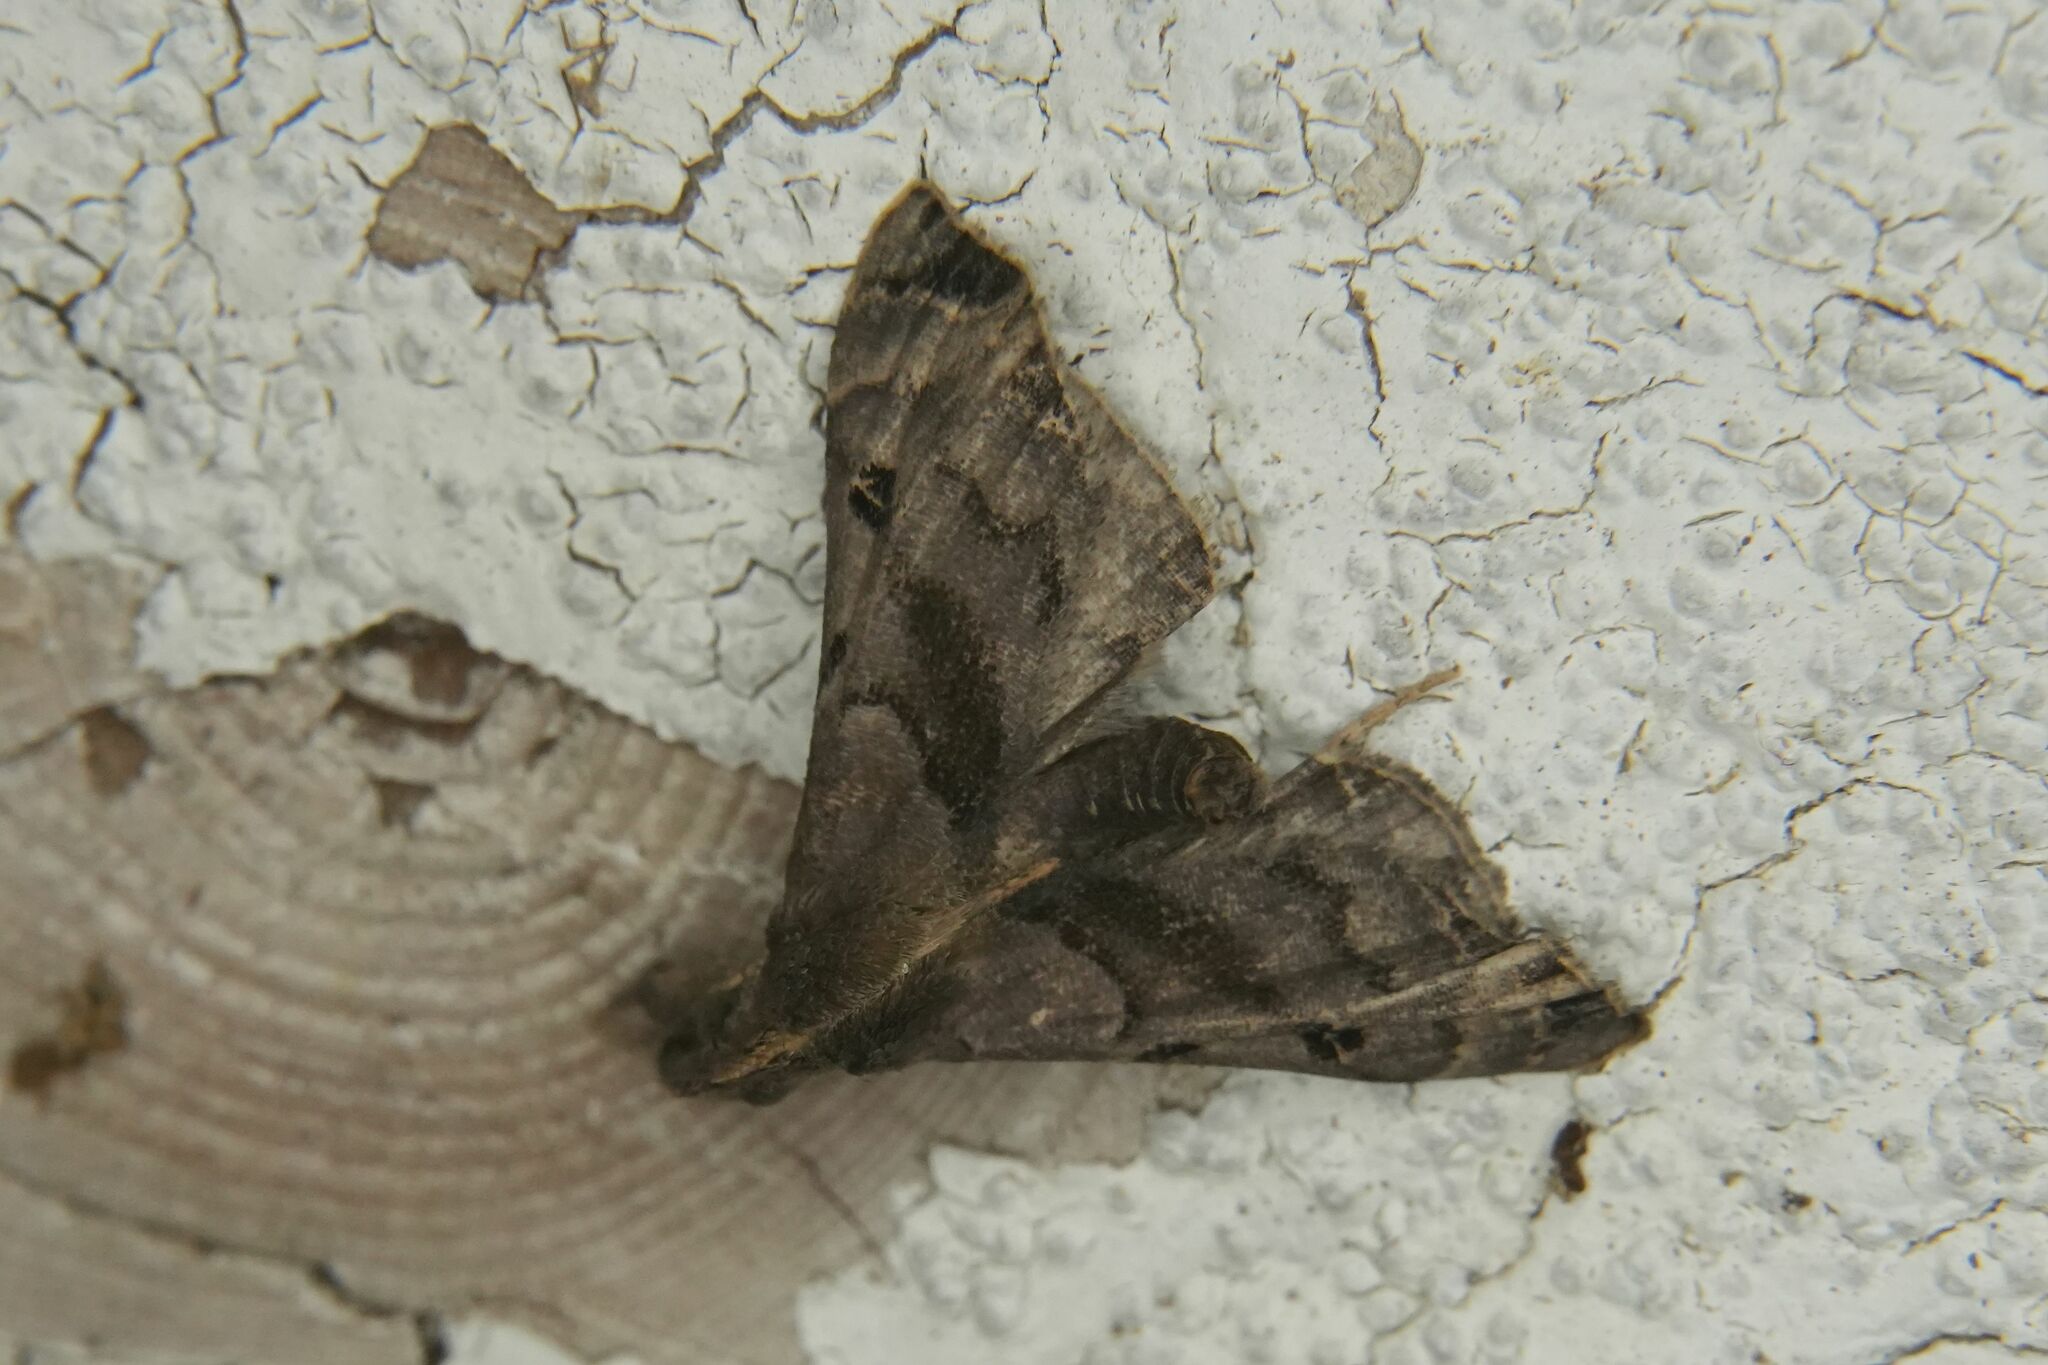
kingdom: Animalia
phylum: Arthropoda
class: Insecta
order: Lepidoptera
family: Erebidae
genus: Palthis
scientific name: Palthis asopialis
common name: Faint-spotted palthis moth
